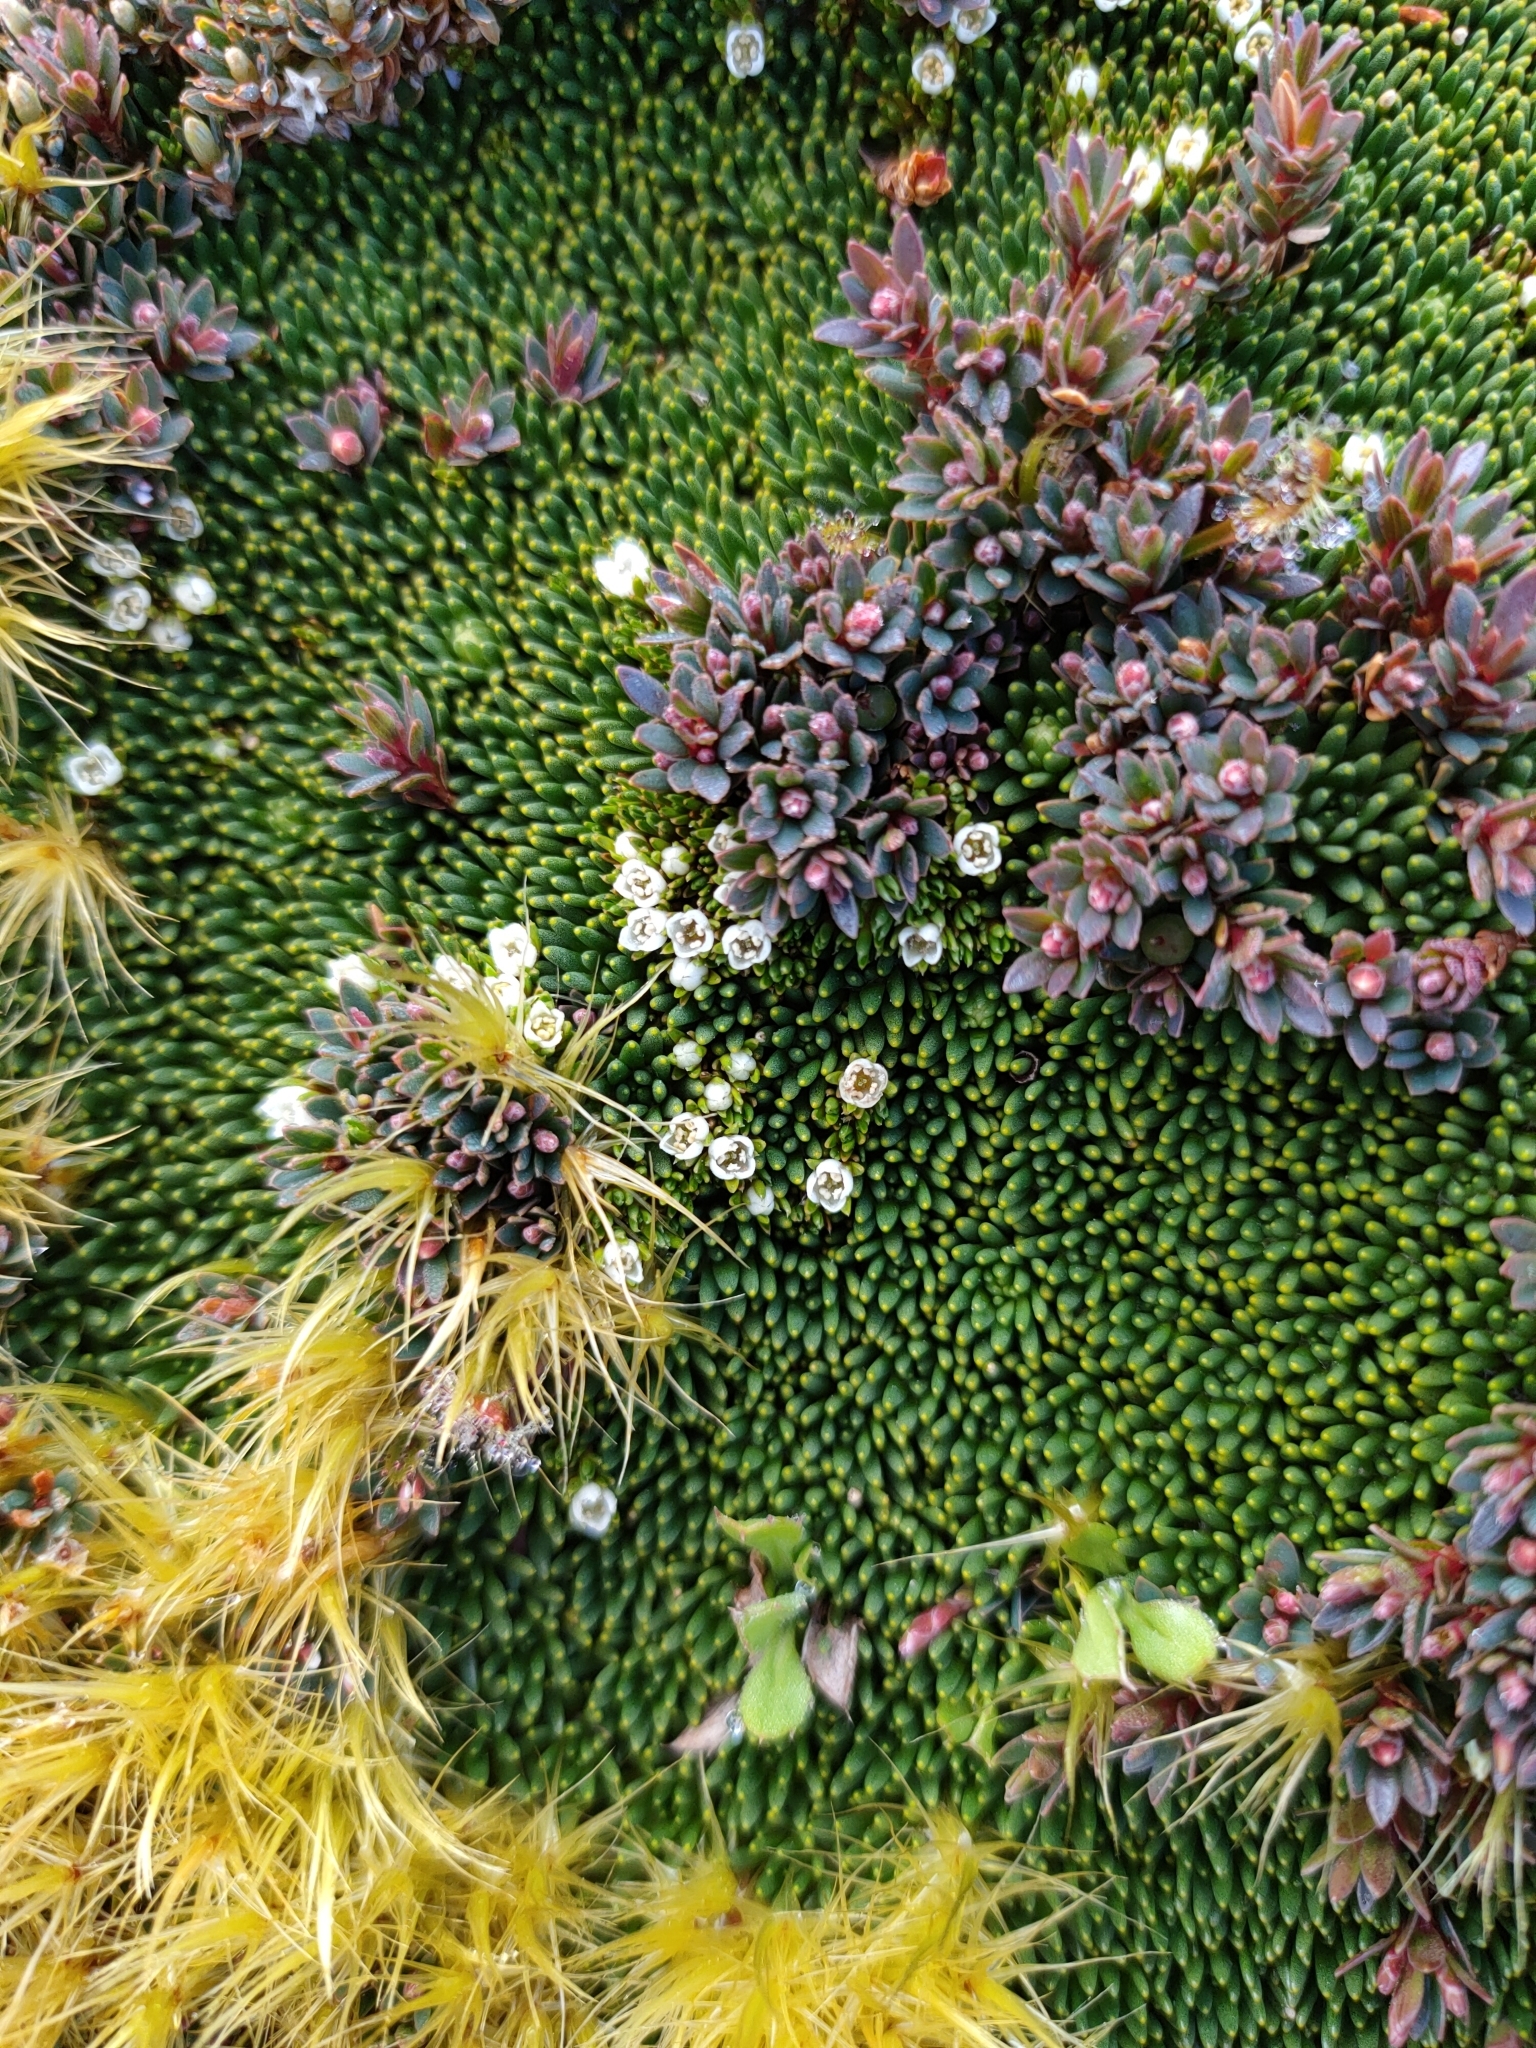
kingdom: Plantae
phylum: Tracheophyta
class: Magnoliopsida
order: Gentianales
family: Loganiaceae
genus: Schizacme
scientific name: Schizacme novae-zelandiae
